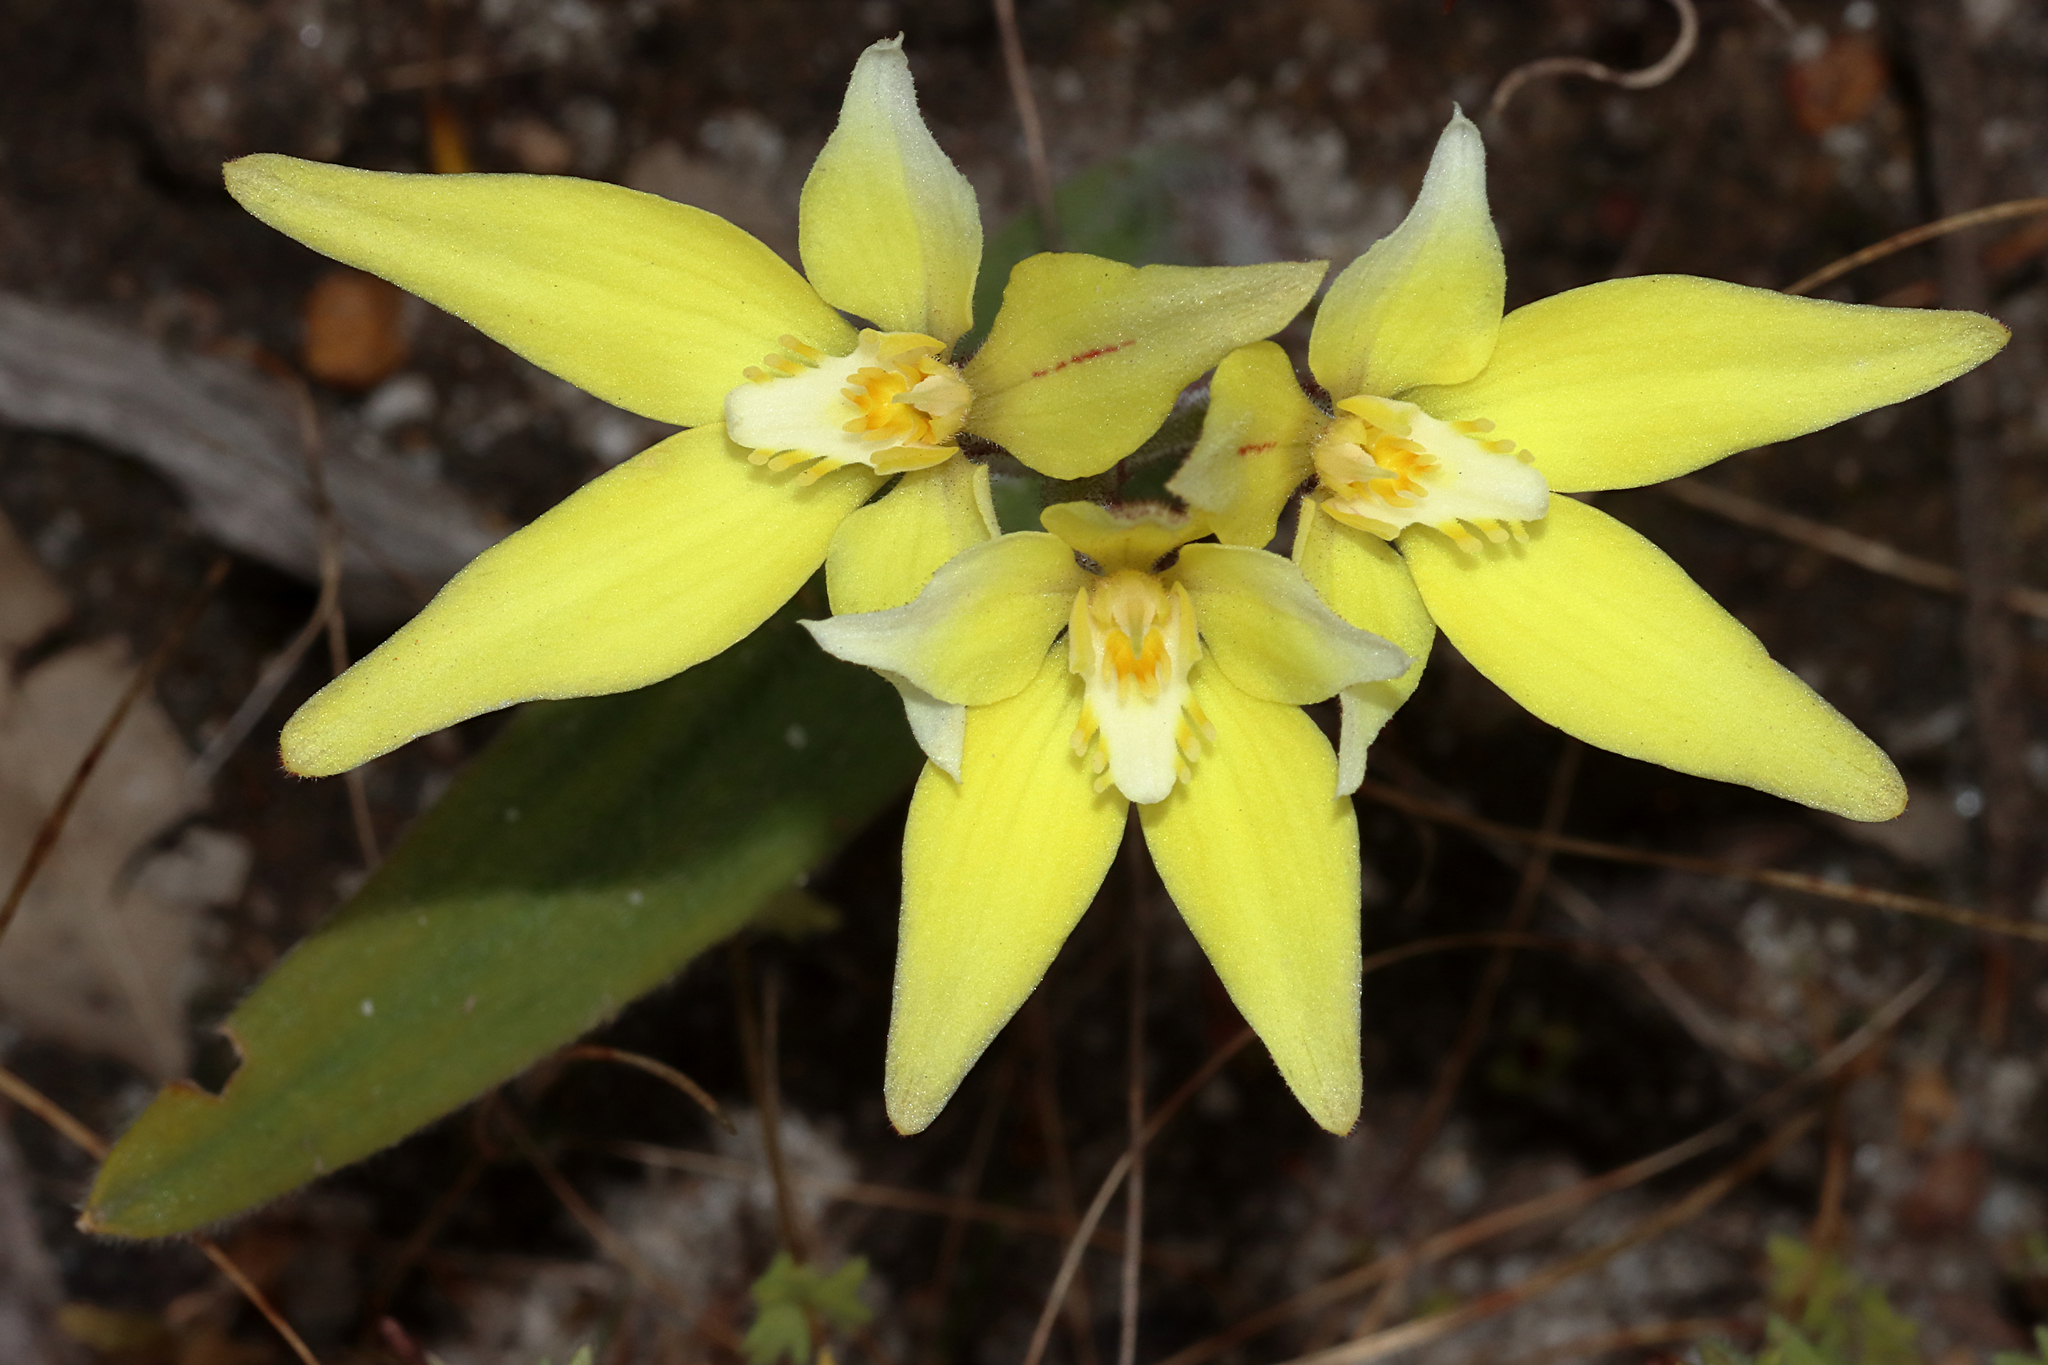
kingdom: Plantae
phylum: Tracheophyta
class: Liliopsida
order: Asparagales
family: Orchidaceae
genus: Caladenia
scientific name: Caladenia flava
